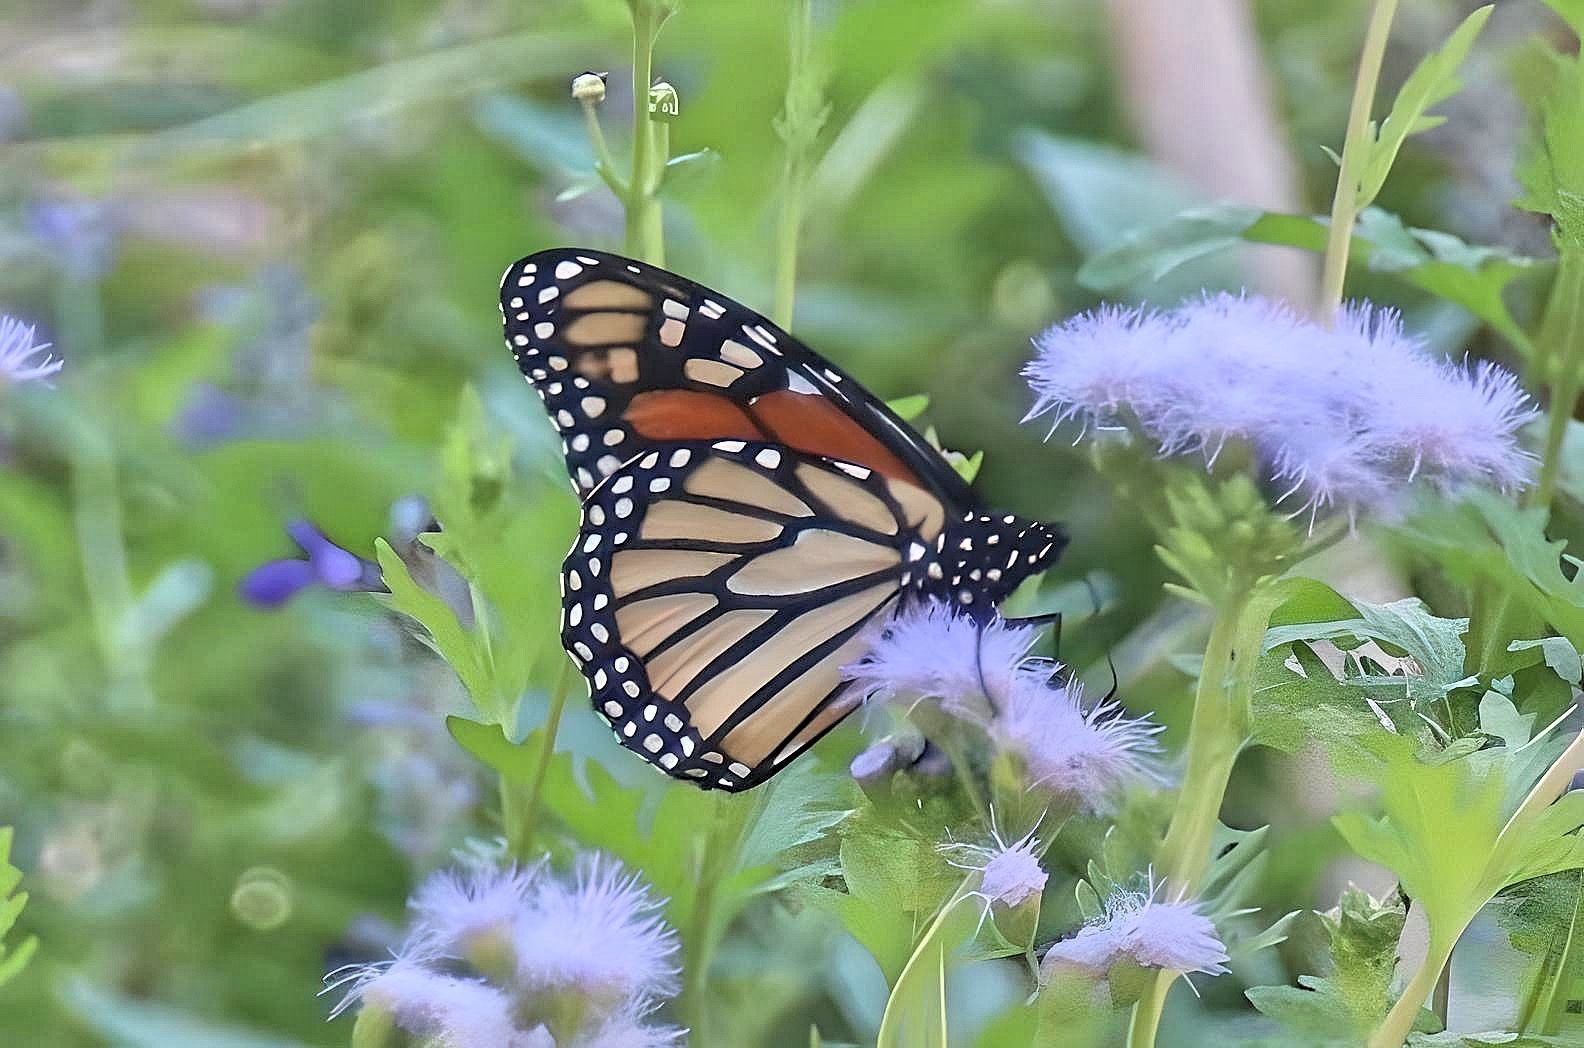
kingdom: Animalia
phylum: Arthropoda
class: Insecta
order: Lepidoptera
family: Nymphalidae
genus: Danaus
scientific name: Danaus plexippus
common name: Monarch
